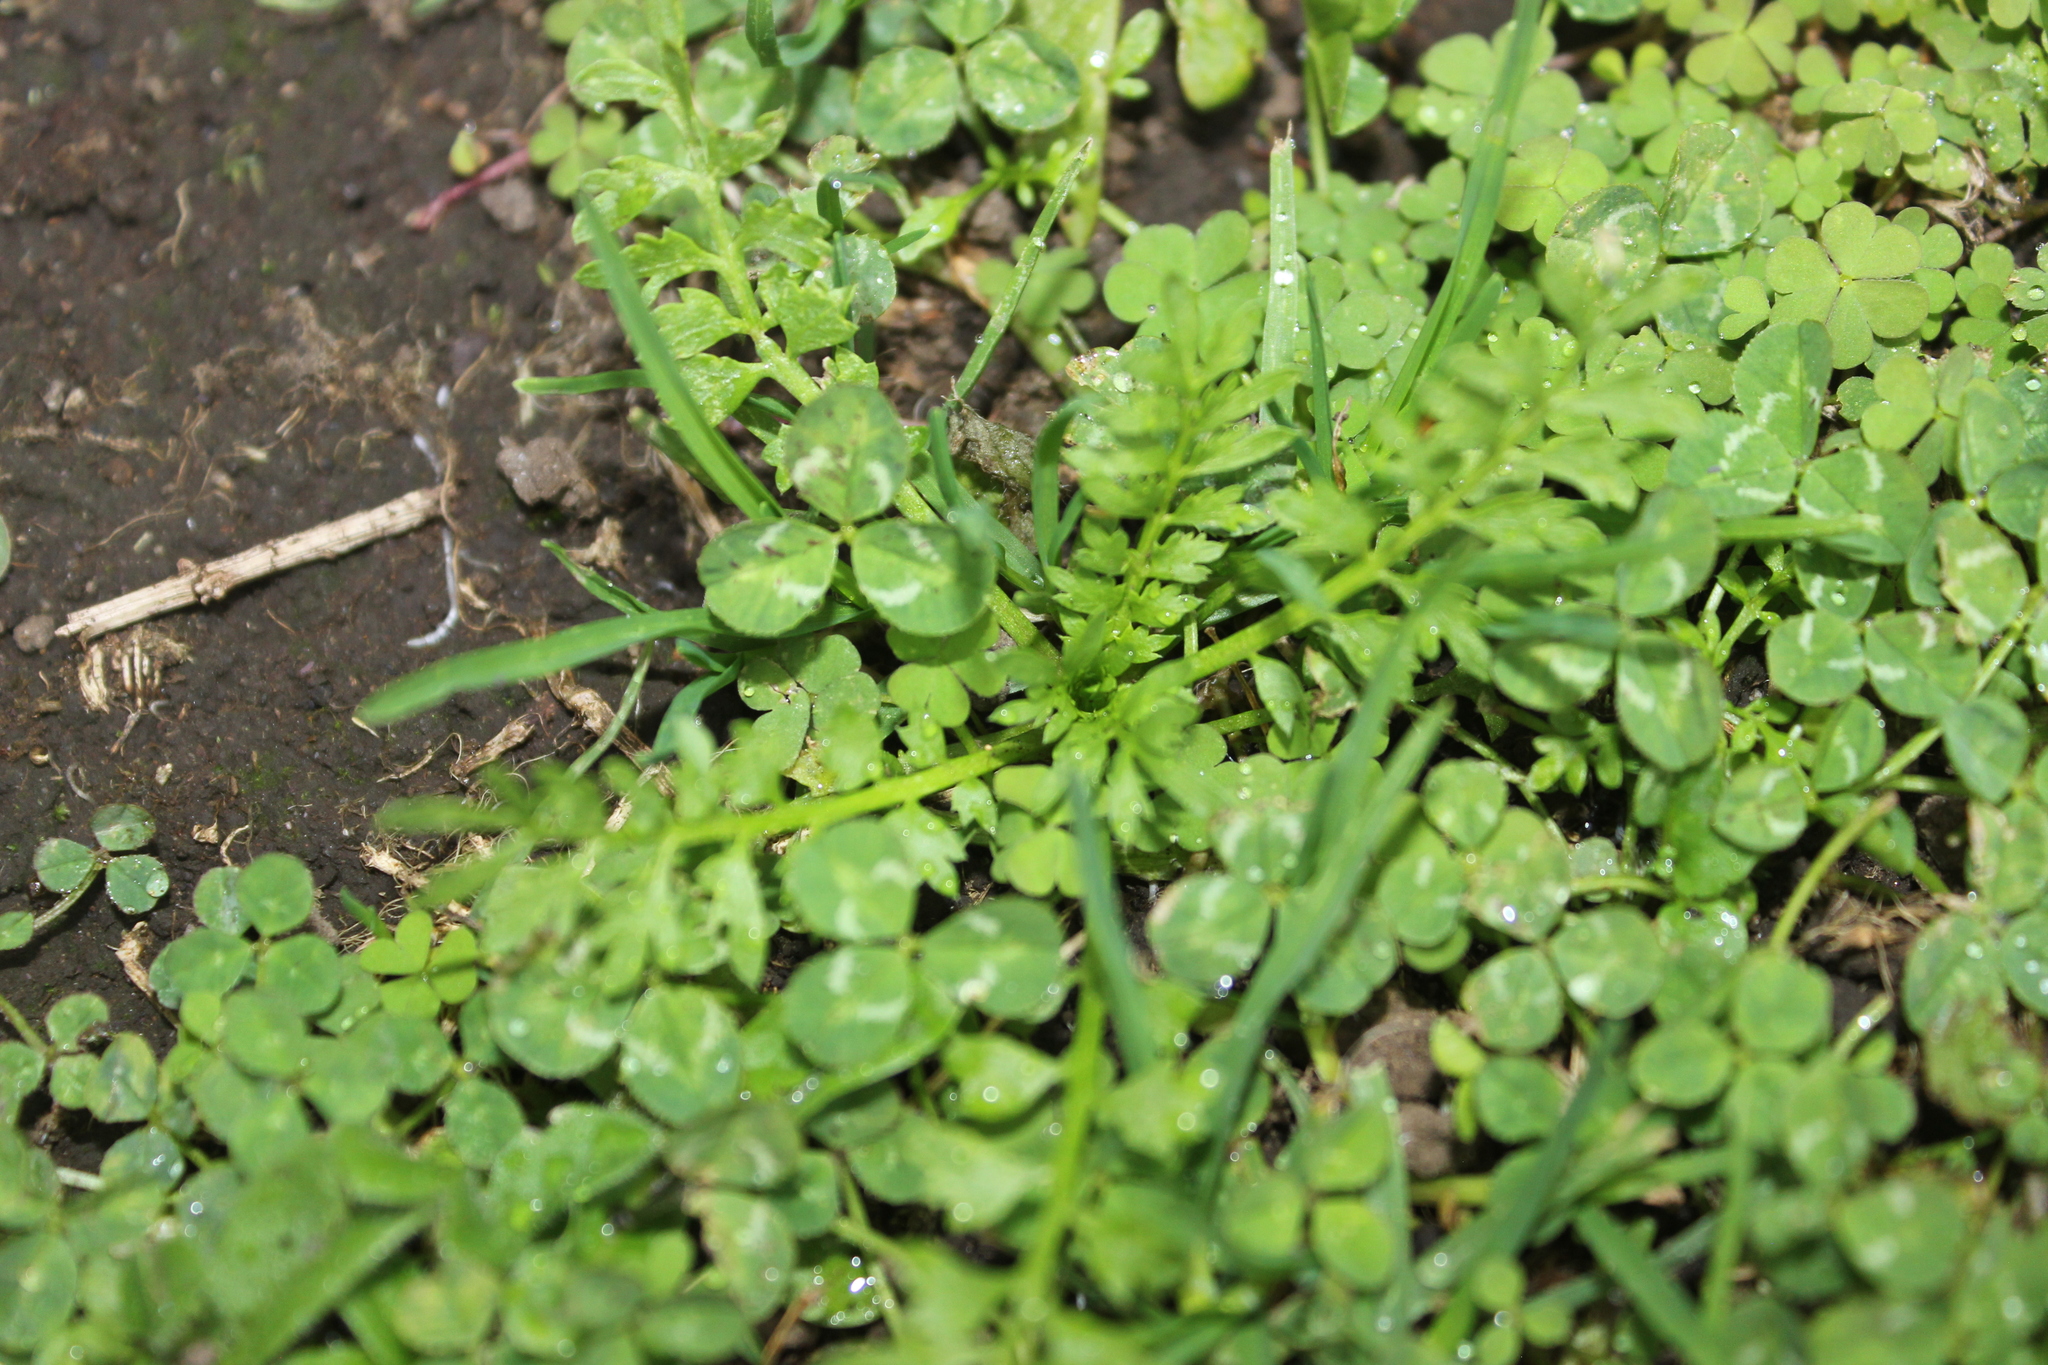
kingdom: Plantae
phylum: Tracheophyta
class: Magnoliopsida
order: Brassicales
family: Brassicaceae
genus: Lepidium
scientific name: Lepidium didymum
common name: Lesser swinecress
